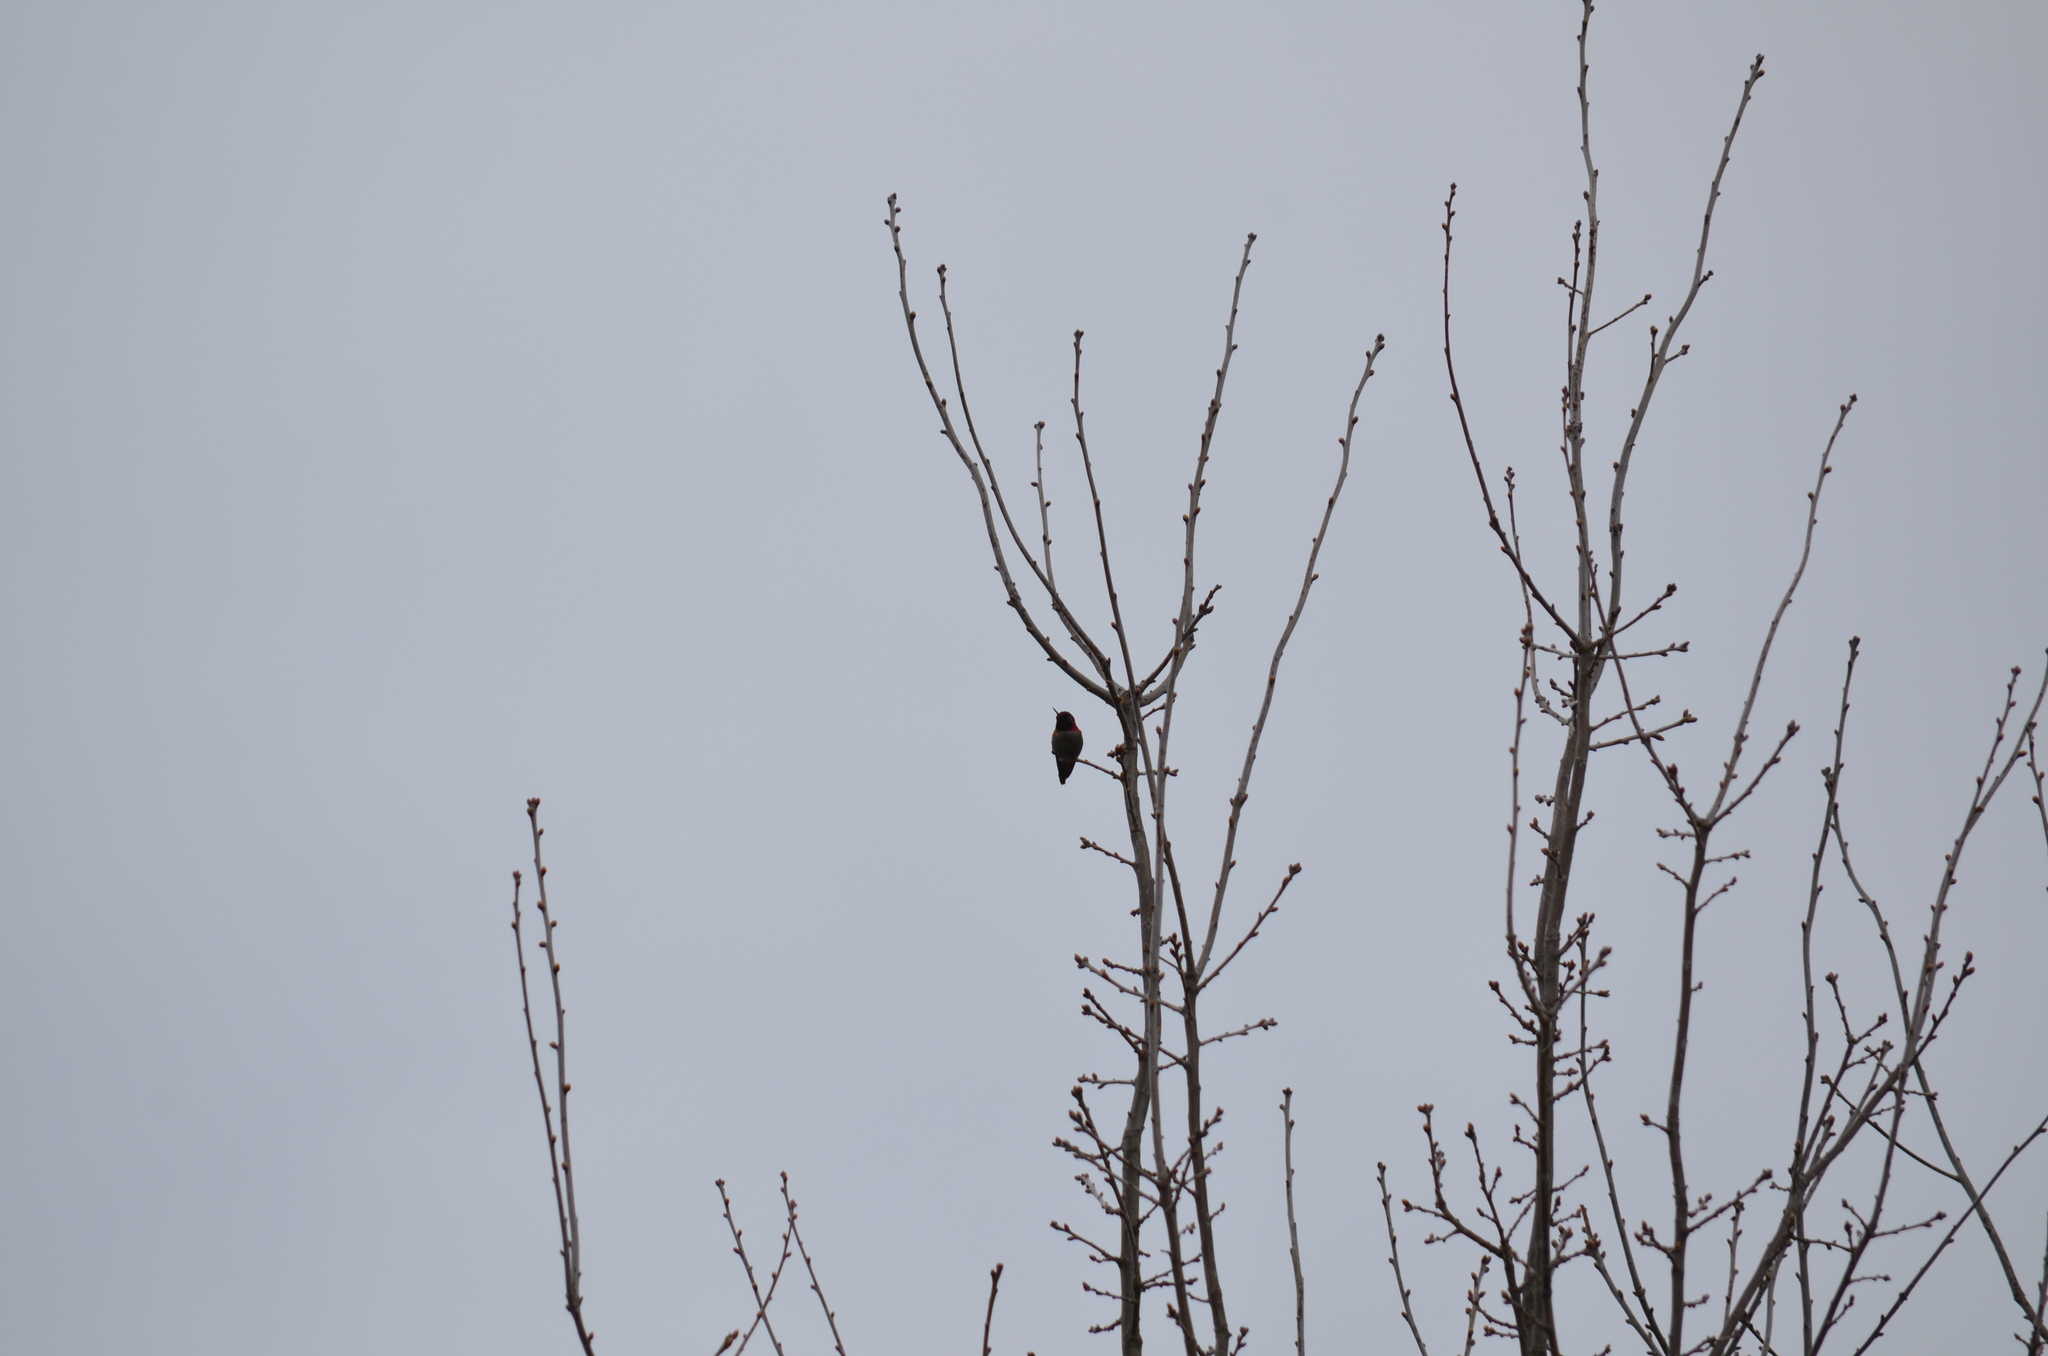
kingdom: Animalia
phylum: Chordata
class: Aves
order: Apodiformes
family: Trochilidae
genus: Calypte
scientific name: Calypte anna
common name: Anna's hummingbird
